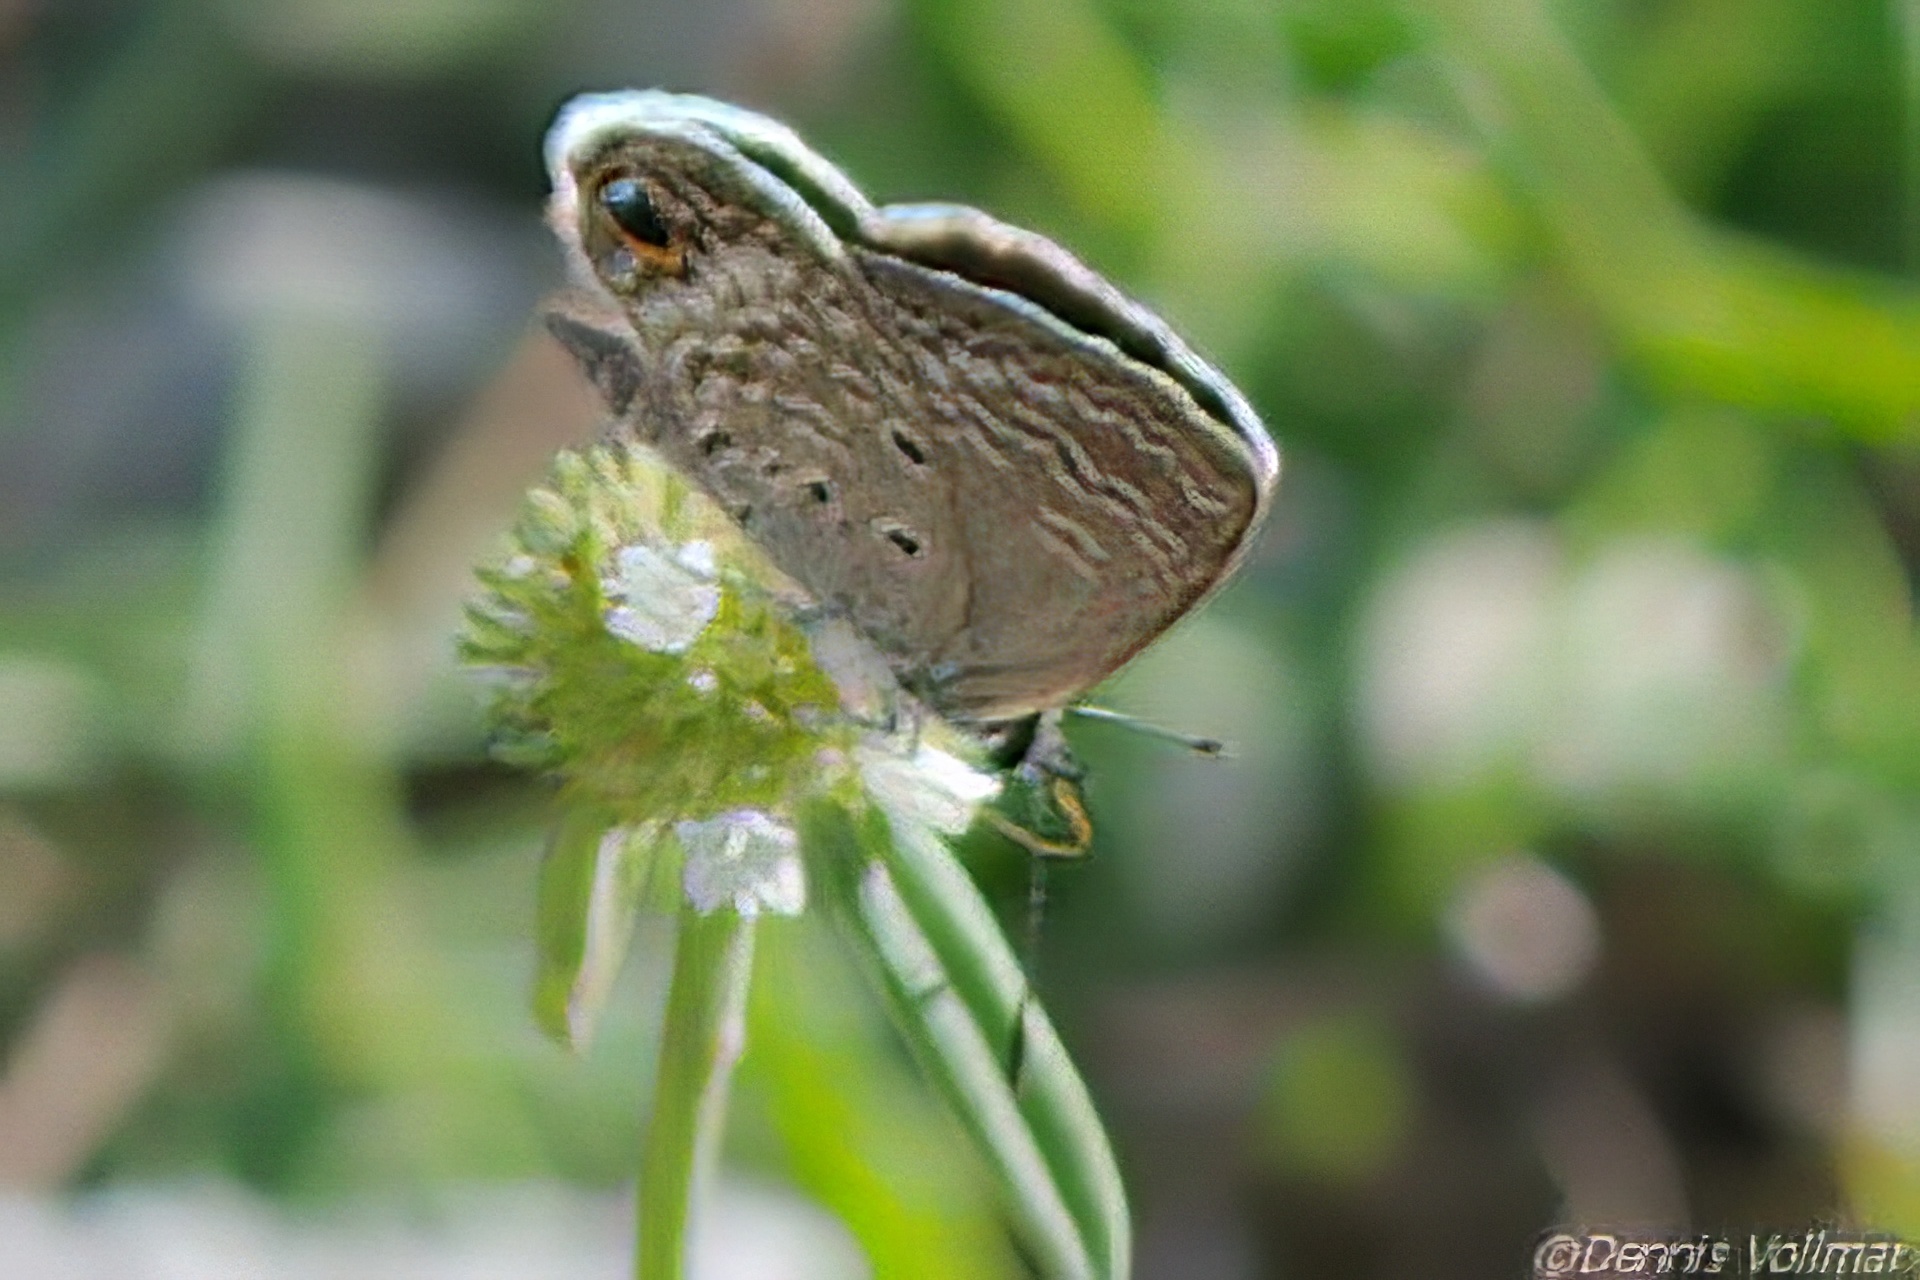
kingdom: Animalia
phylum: Arthropoda
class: Insecta
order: Lepidoptera
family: Lycaenidae
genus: Hemiargus
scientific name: Hemiargus ceraunus
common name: Ceraunus blue
